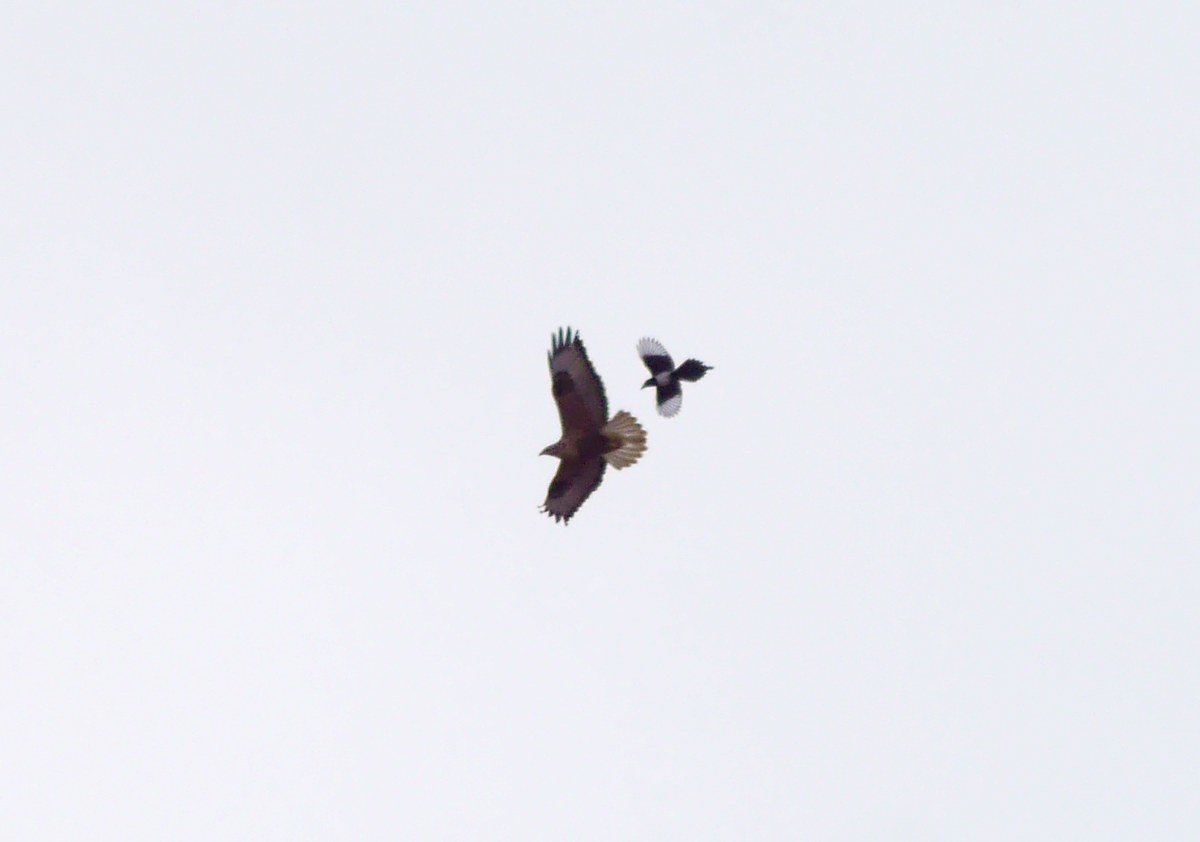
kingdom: Animalia
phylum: Chordata
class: Aves
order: Accipitriformes
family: Accipitridae
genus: Buteo
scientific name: Buteo rufinus
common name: Long-legged buzzard
